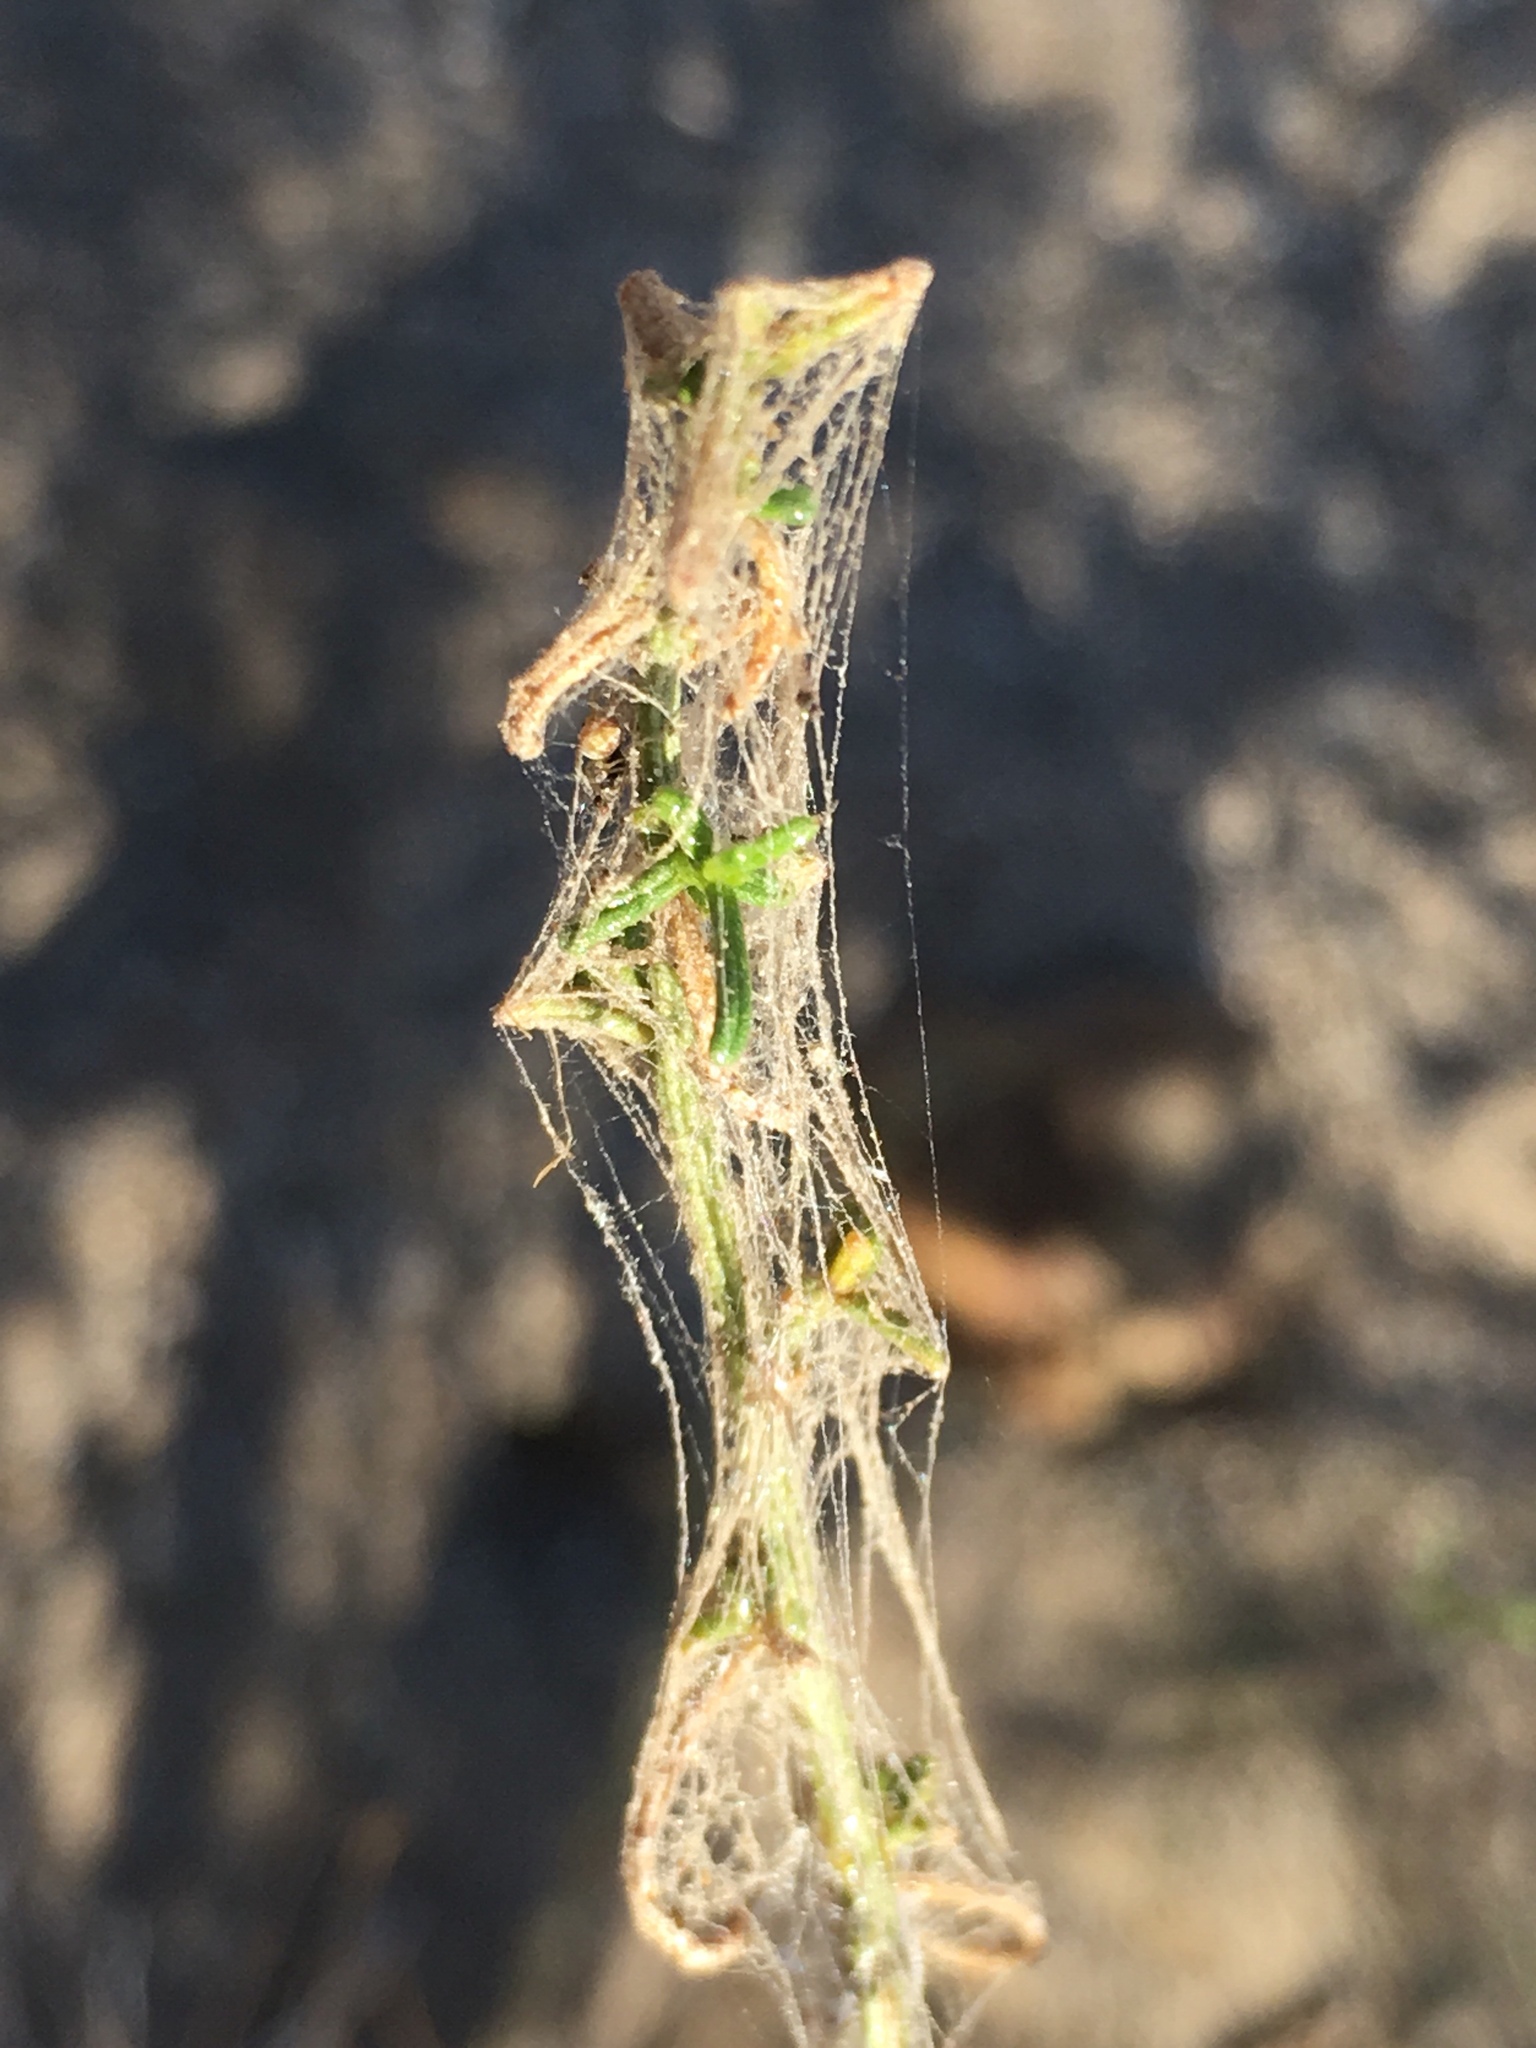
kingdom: Plantae
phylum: Tracheophyta
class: Magnoliopsida
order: Asterales
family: Asteraceae
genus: Ambrosia
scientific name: Ambrosia salsola
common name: Burrobrush
